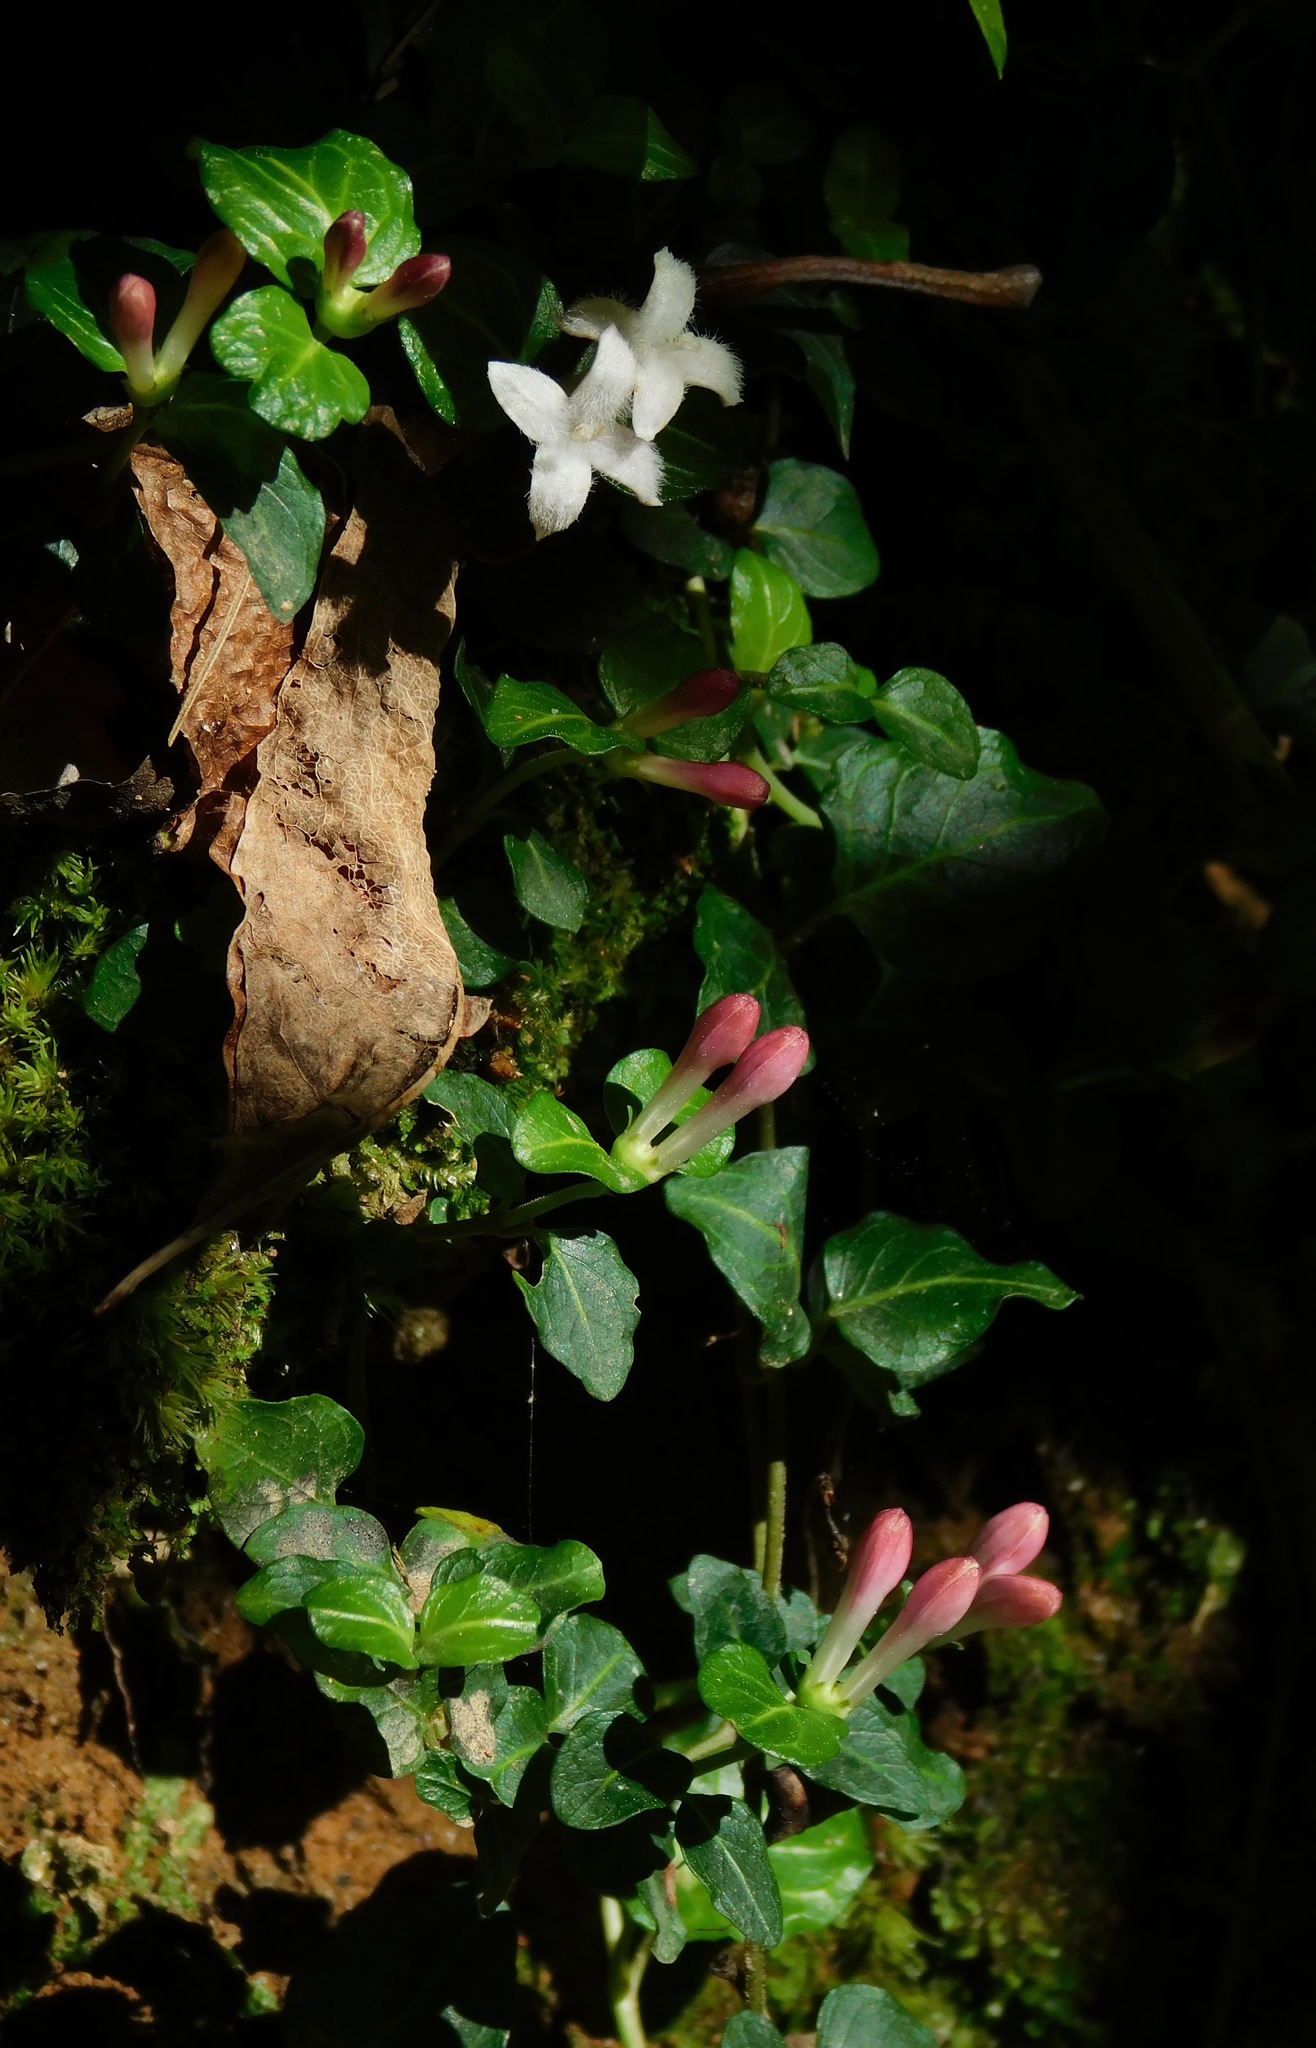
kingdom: Plantae
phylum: Tracheophyta
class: Magnoliopsida
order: Gentianales
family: Rubiaceae
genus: Mitchella
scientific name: Mitchella repens
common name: Partridge-berry
